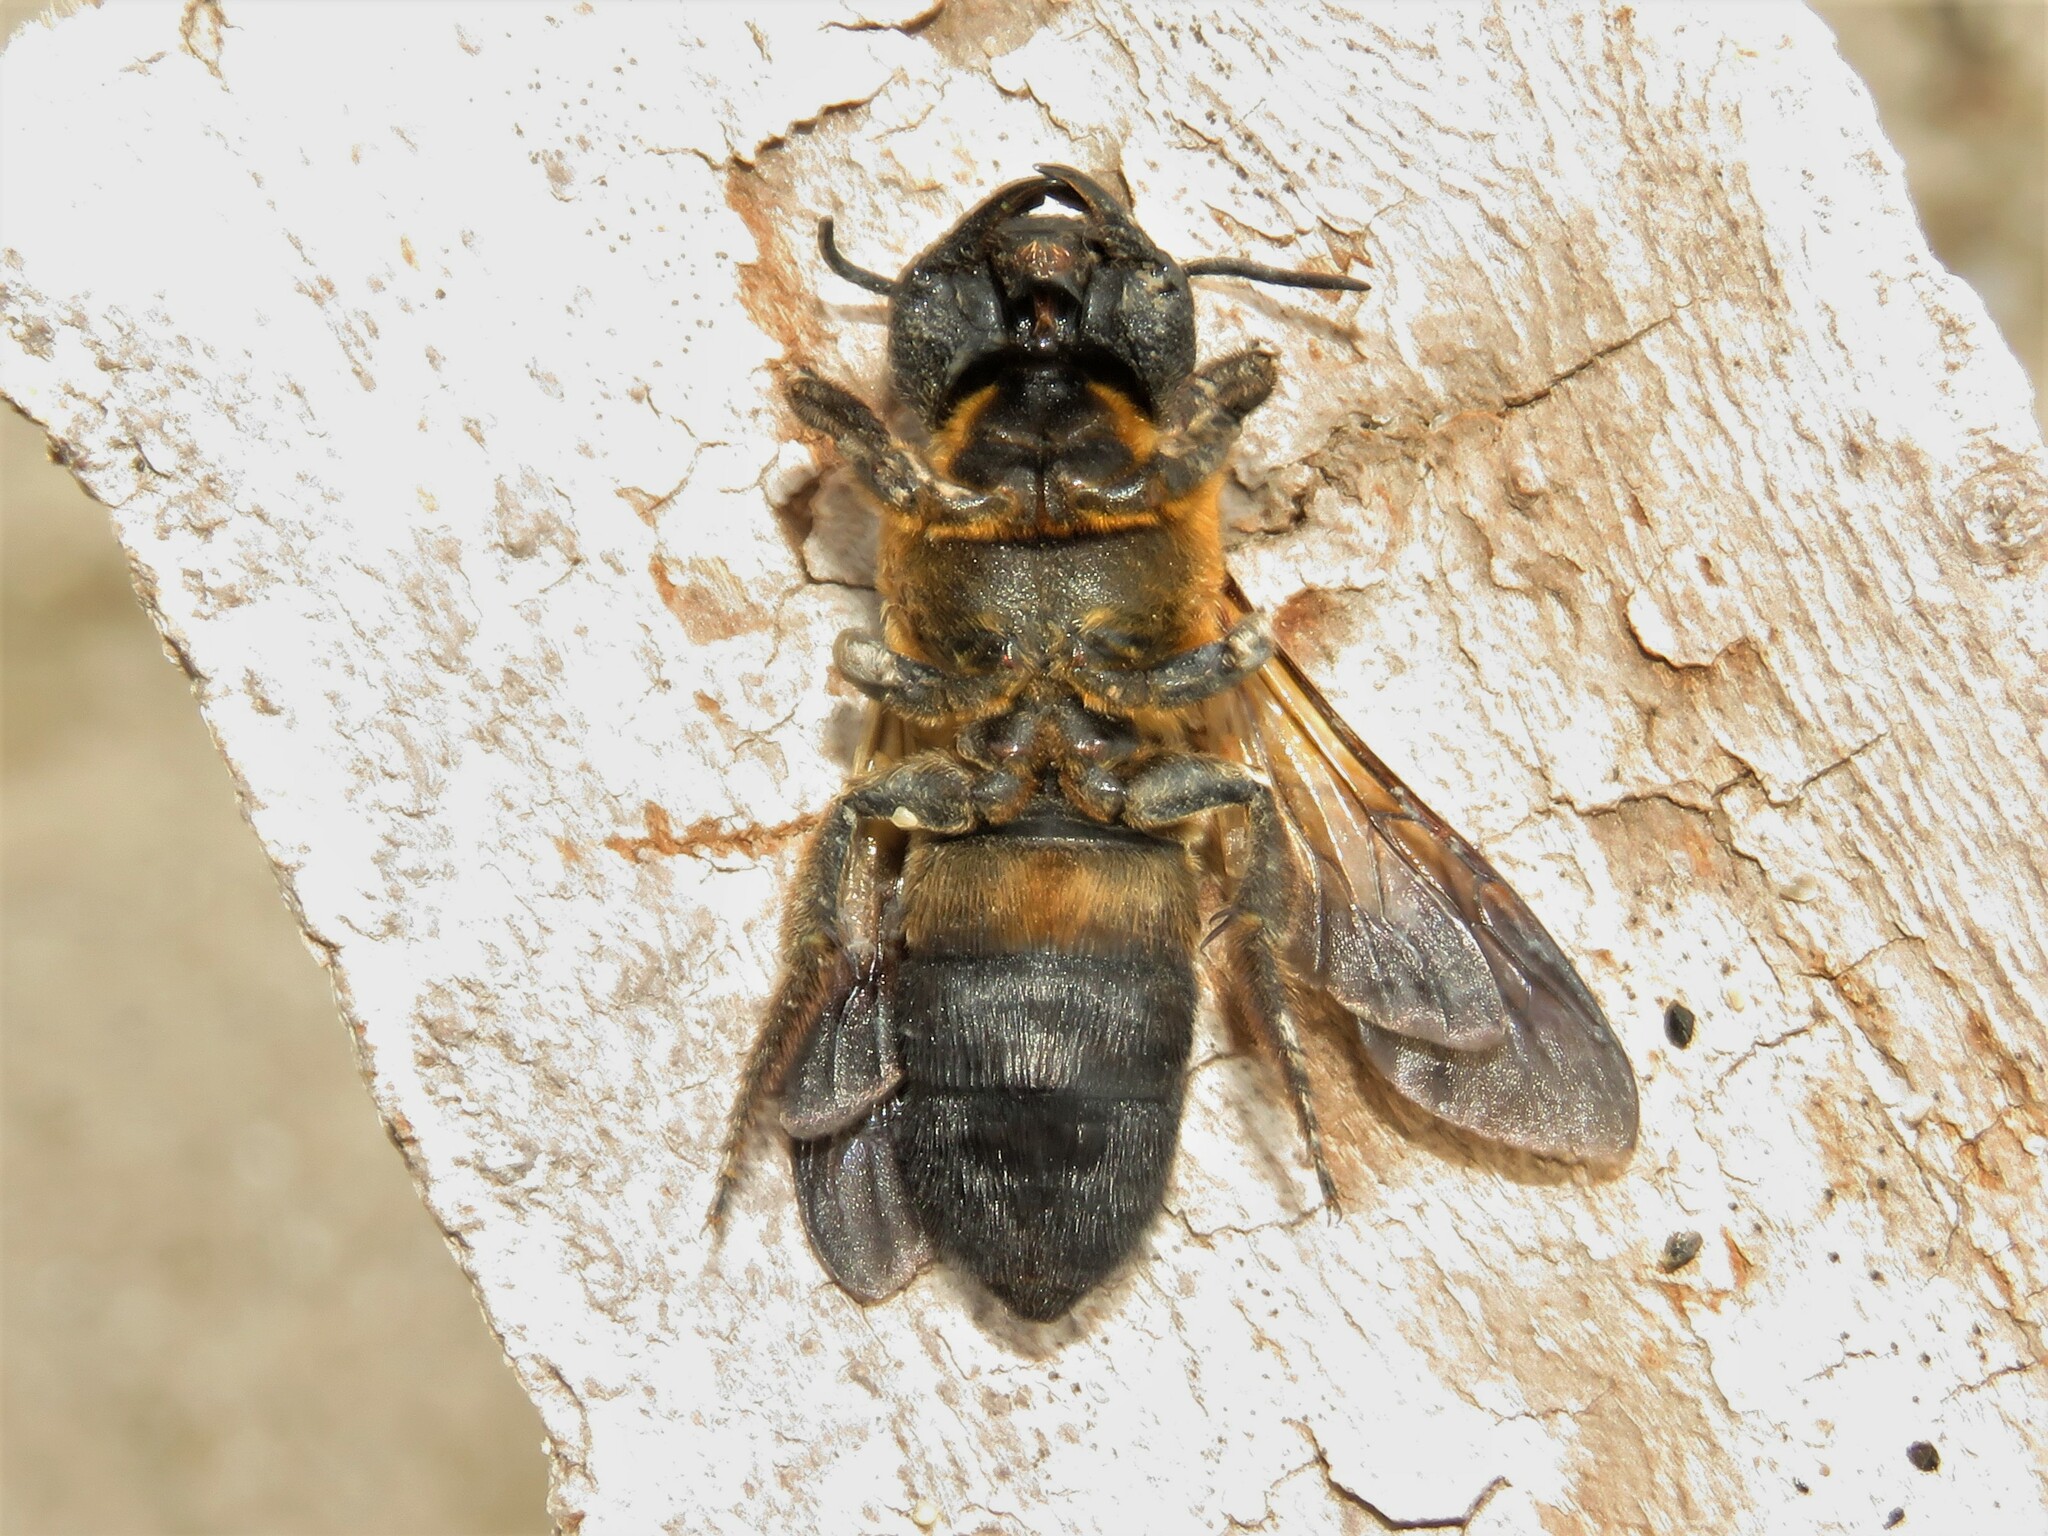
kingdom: Animalia
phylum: Arthropoda
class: Insecta
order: Hymenoptera
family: Megachilidae
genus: Megachile
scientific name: Megachile sculpturalis
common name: Sculptured resin bee
